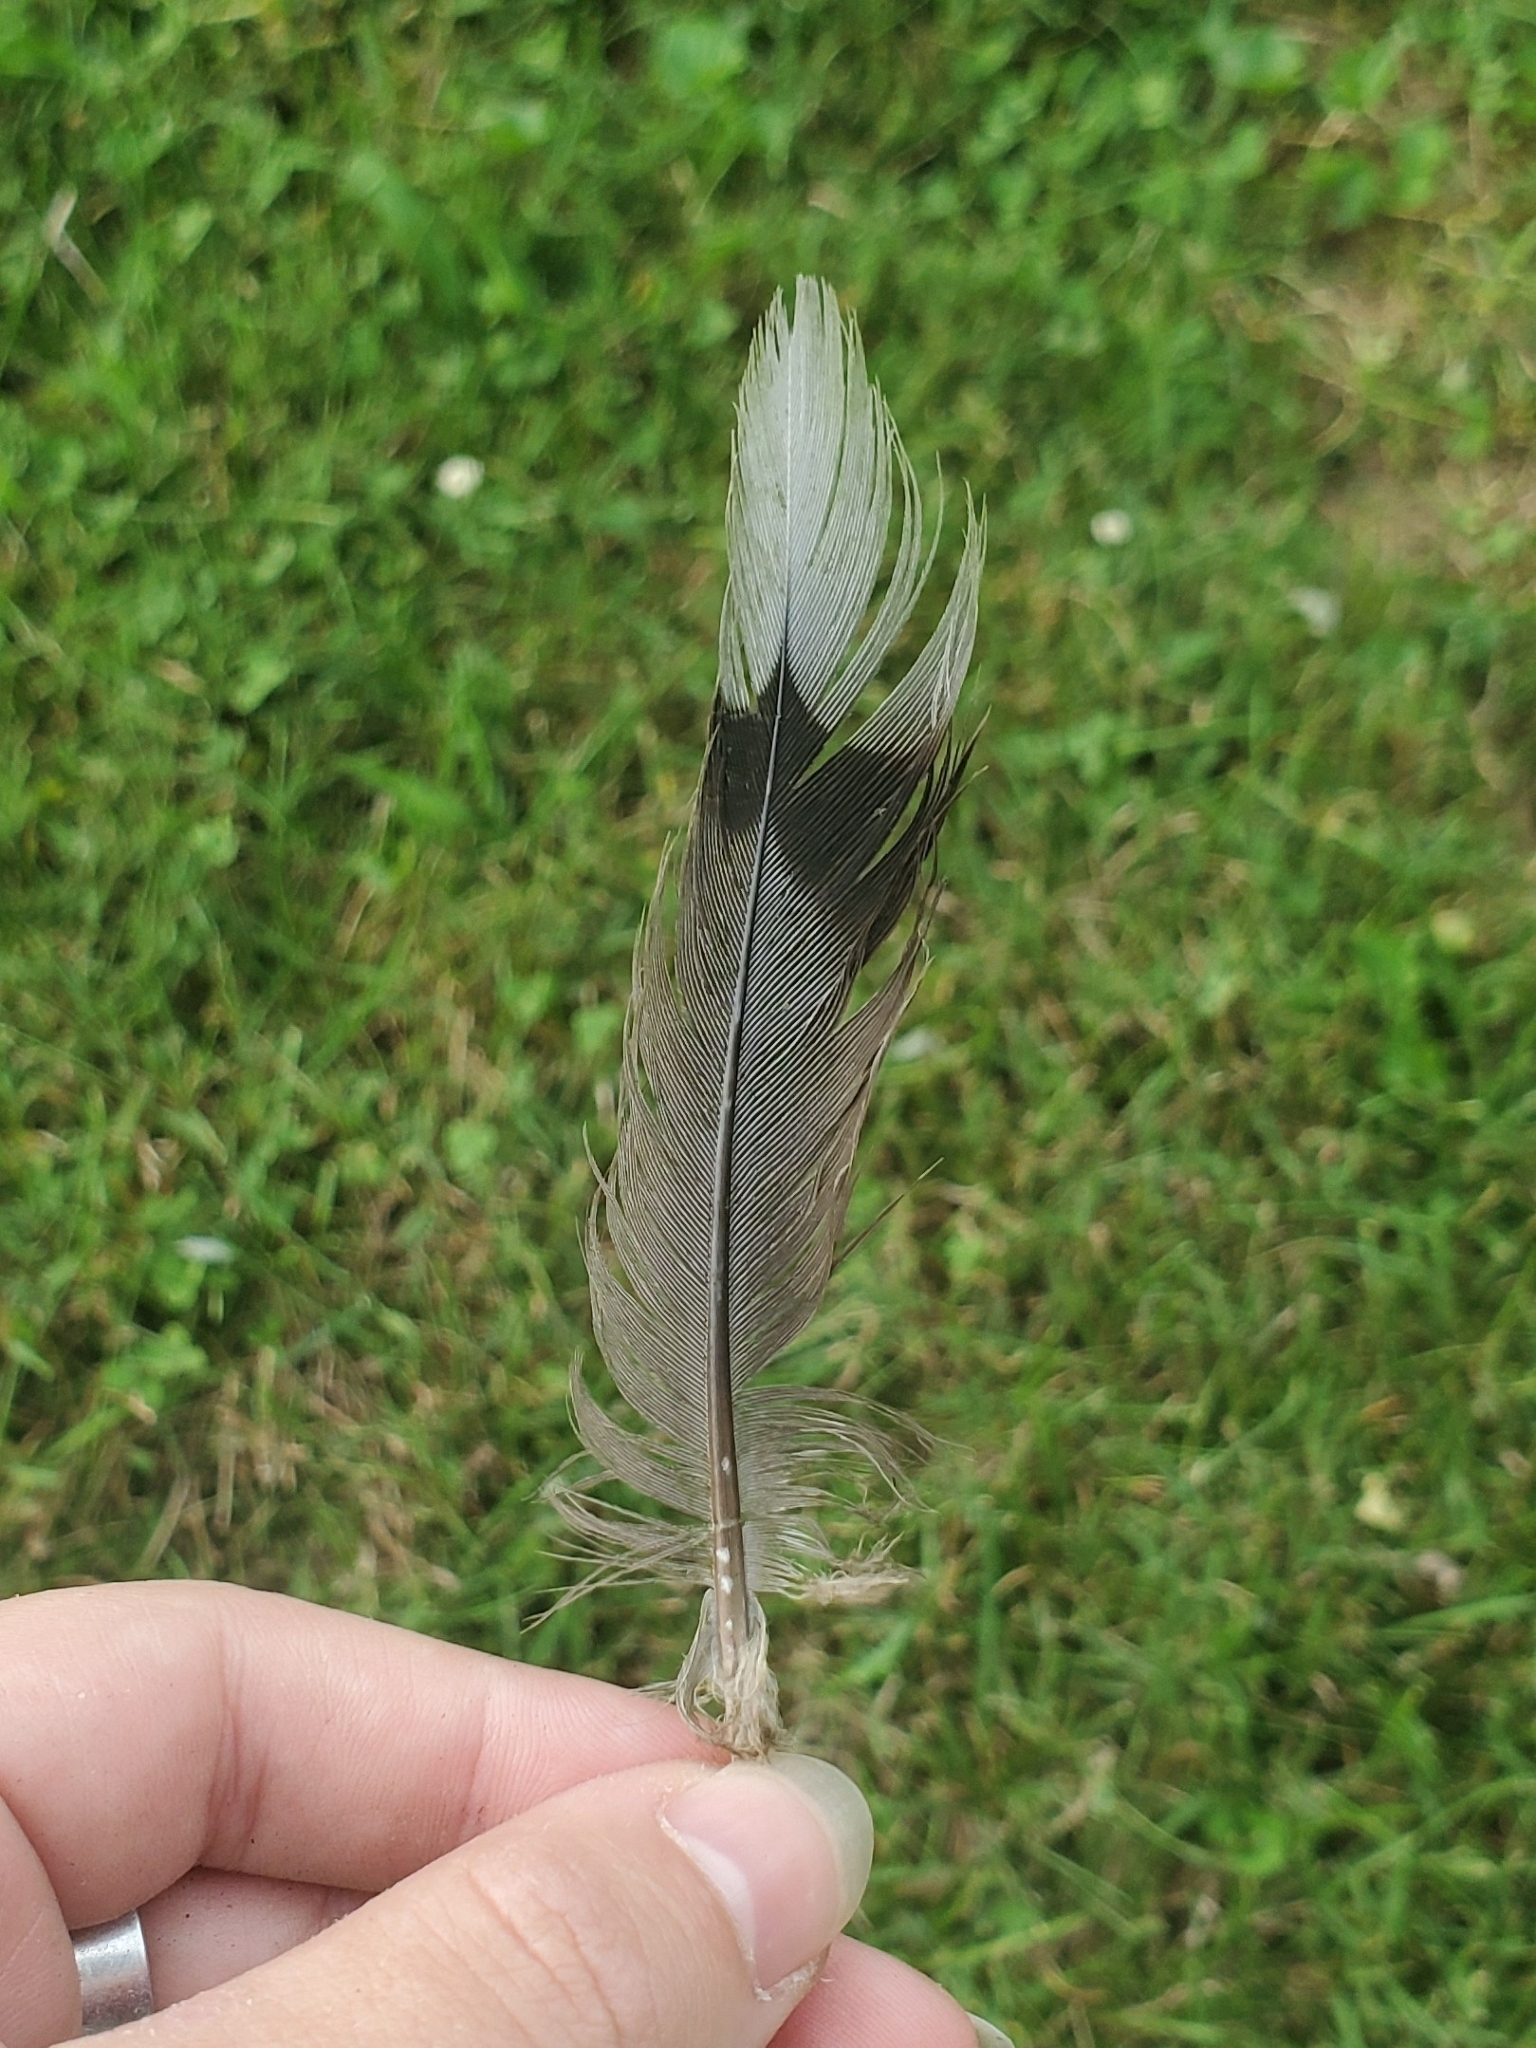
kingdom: Animalia
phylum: Chordata
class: Aves
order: Columbiformes
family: Columbidae
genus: Zenaida
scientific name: Zenaida macroura
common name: Mourning dove
